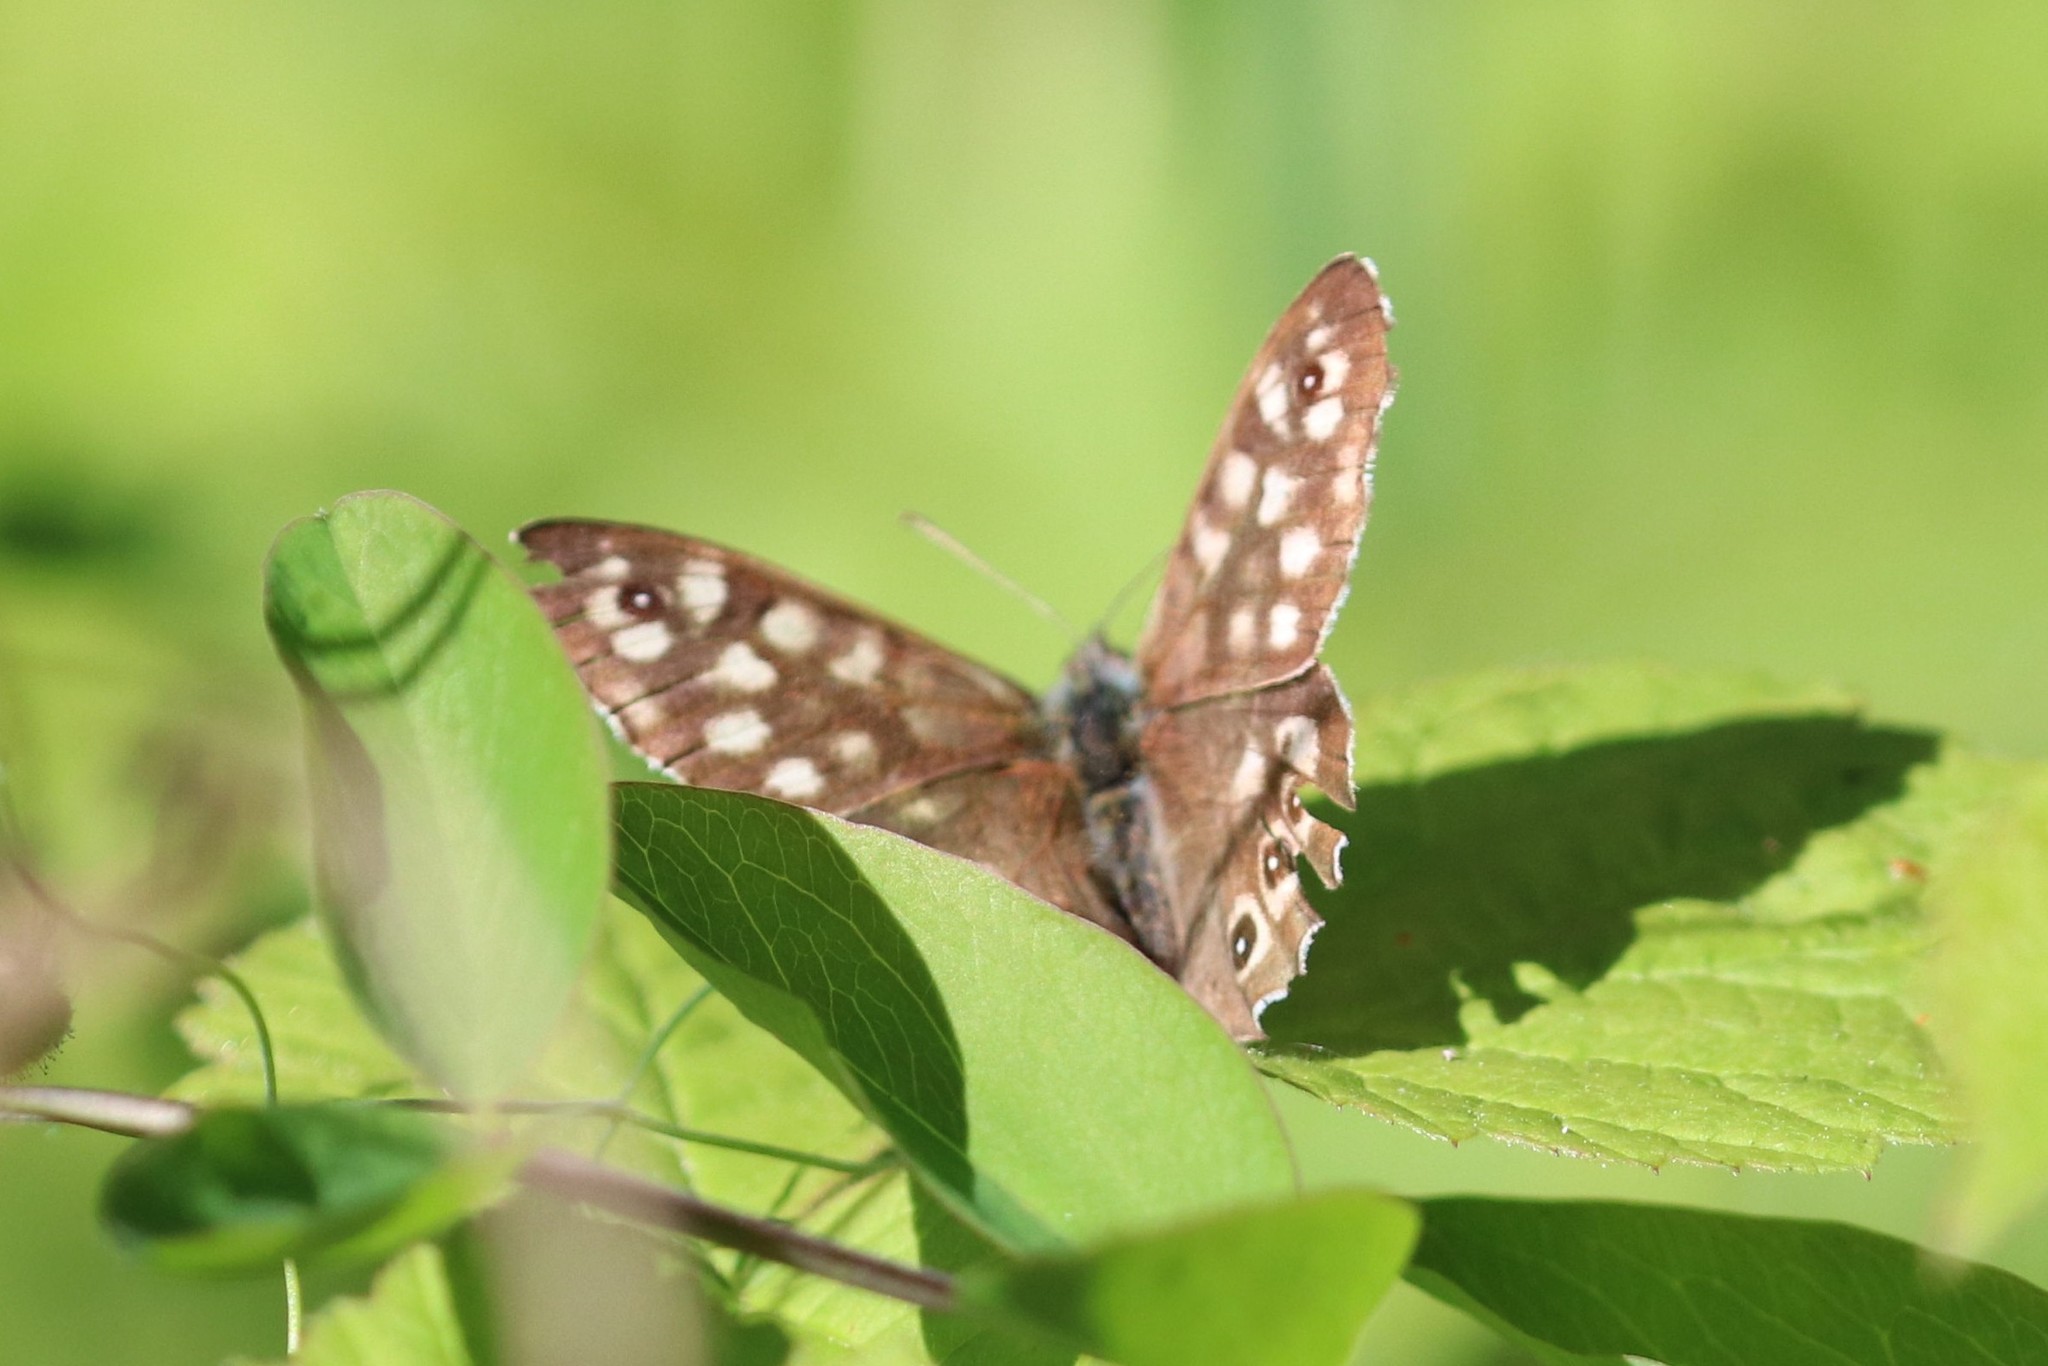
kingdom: Animalia
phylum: Arthropoda
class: Insecta
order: Lepidoptera
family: Nymphalidae
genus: Pararge
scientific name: Pararge aegeria
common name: Speckled wood
